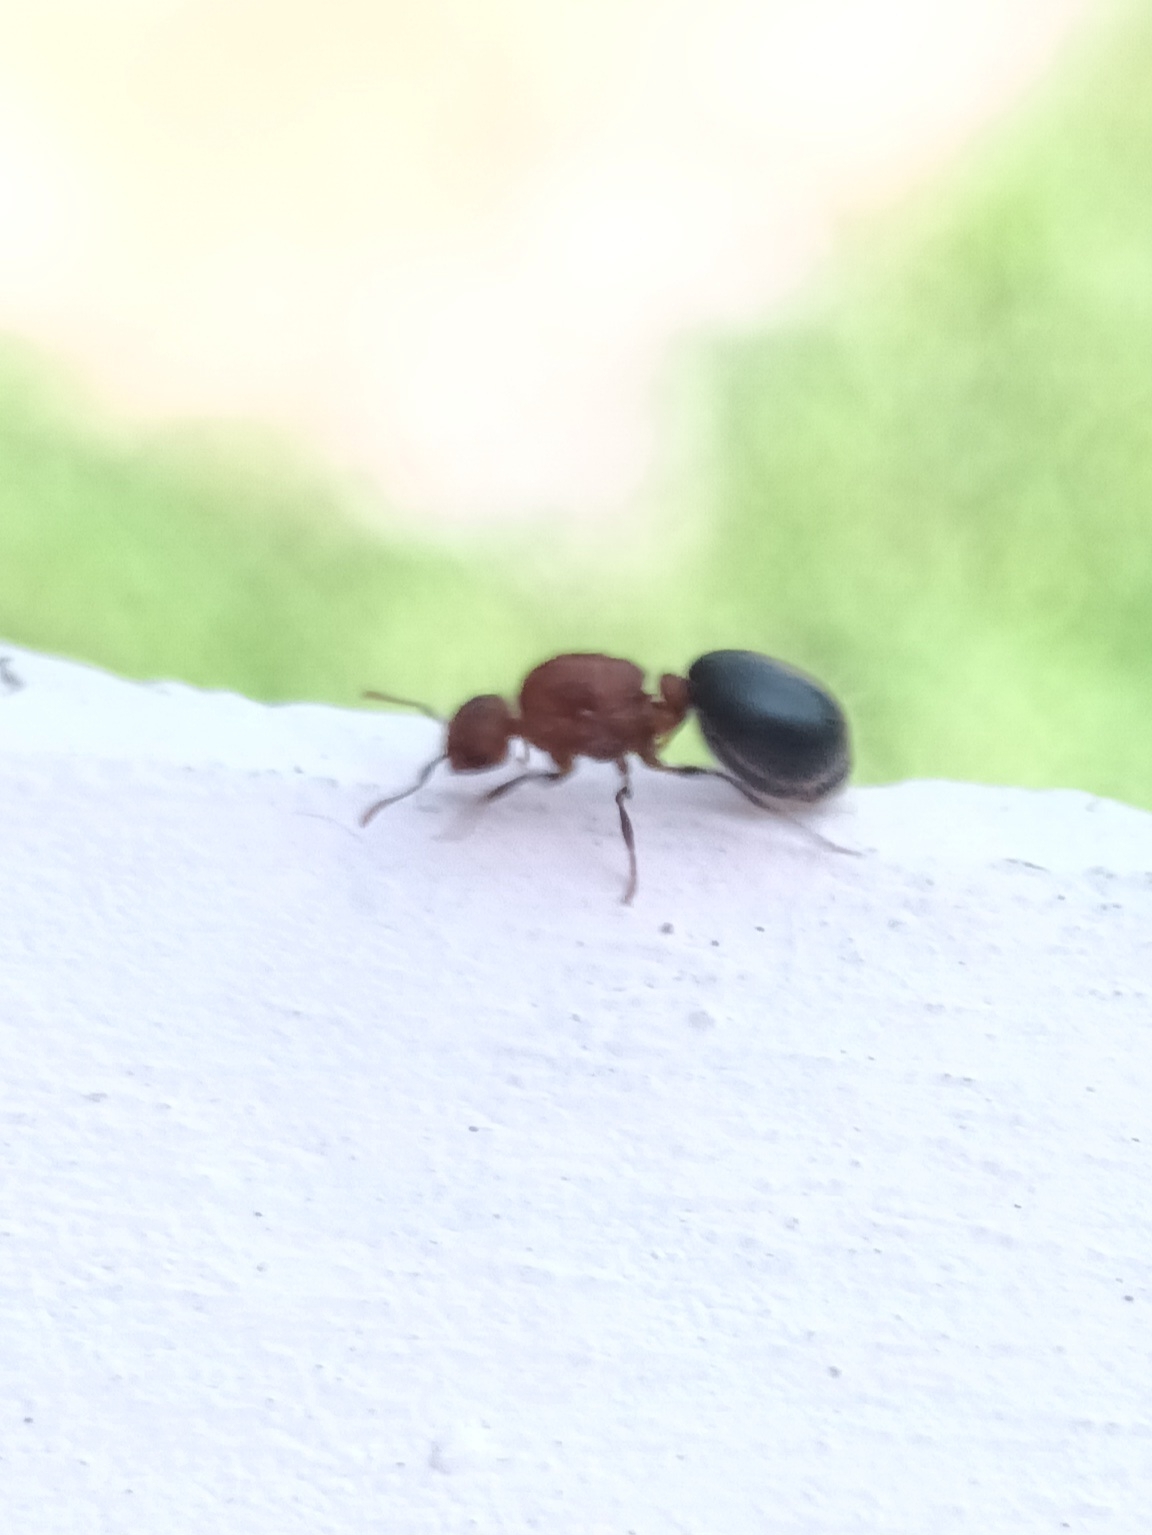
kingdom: Animalia
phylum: Arthropoda
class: Insecta
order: Hymenoptera
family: Formicidae
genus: Meranoplus
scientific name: Meranoplus bicolor
